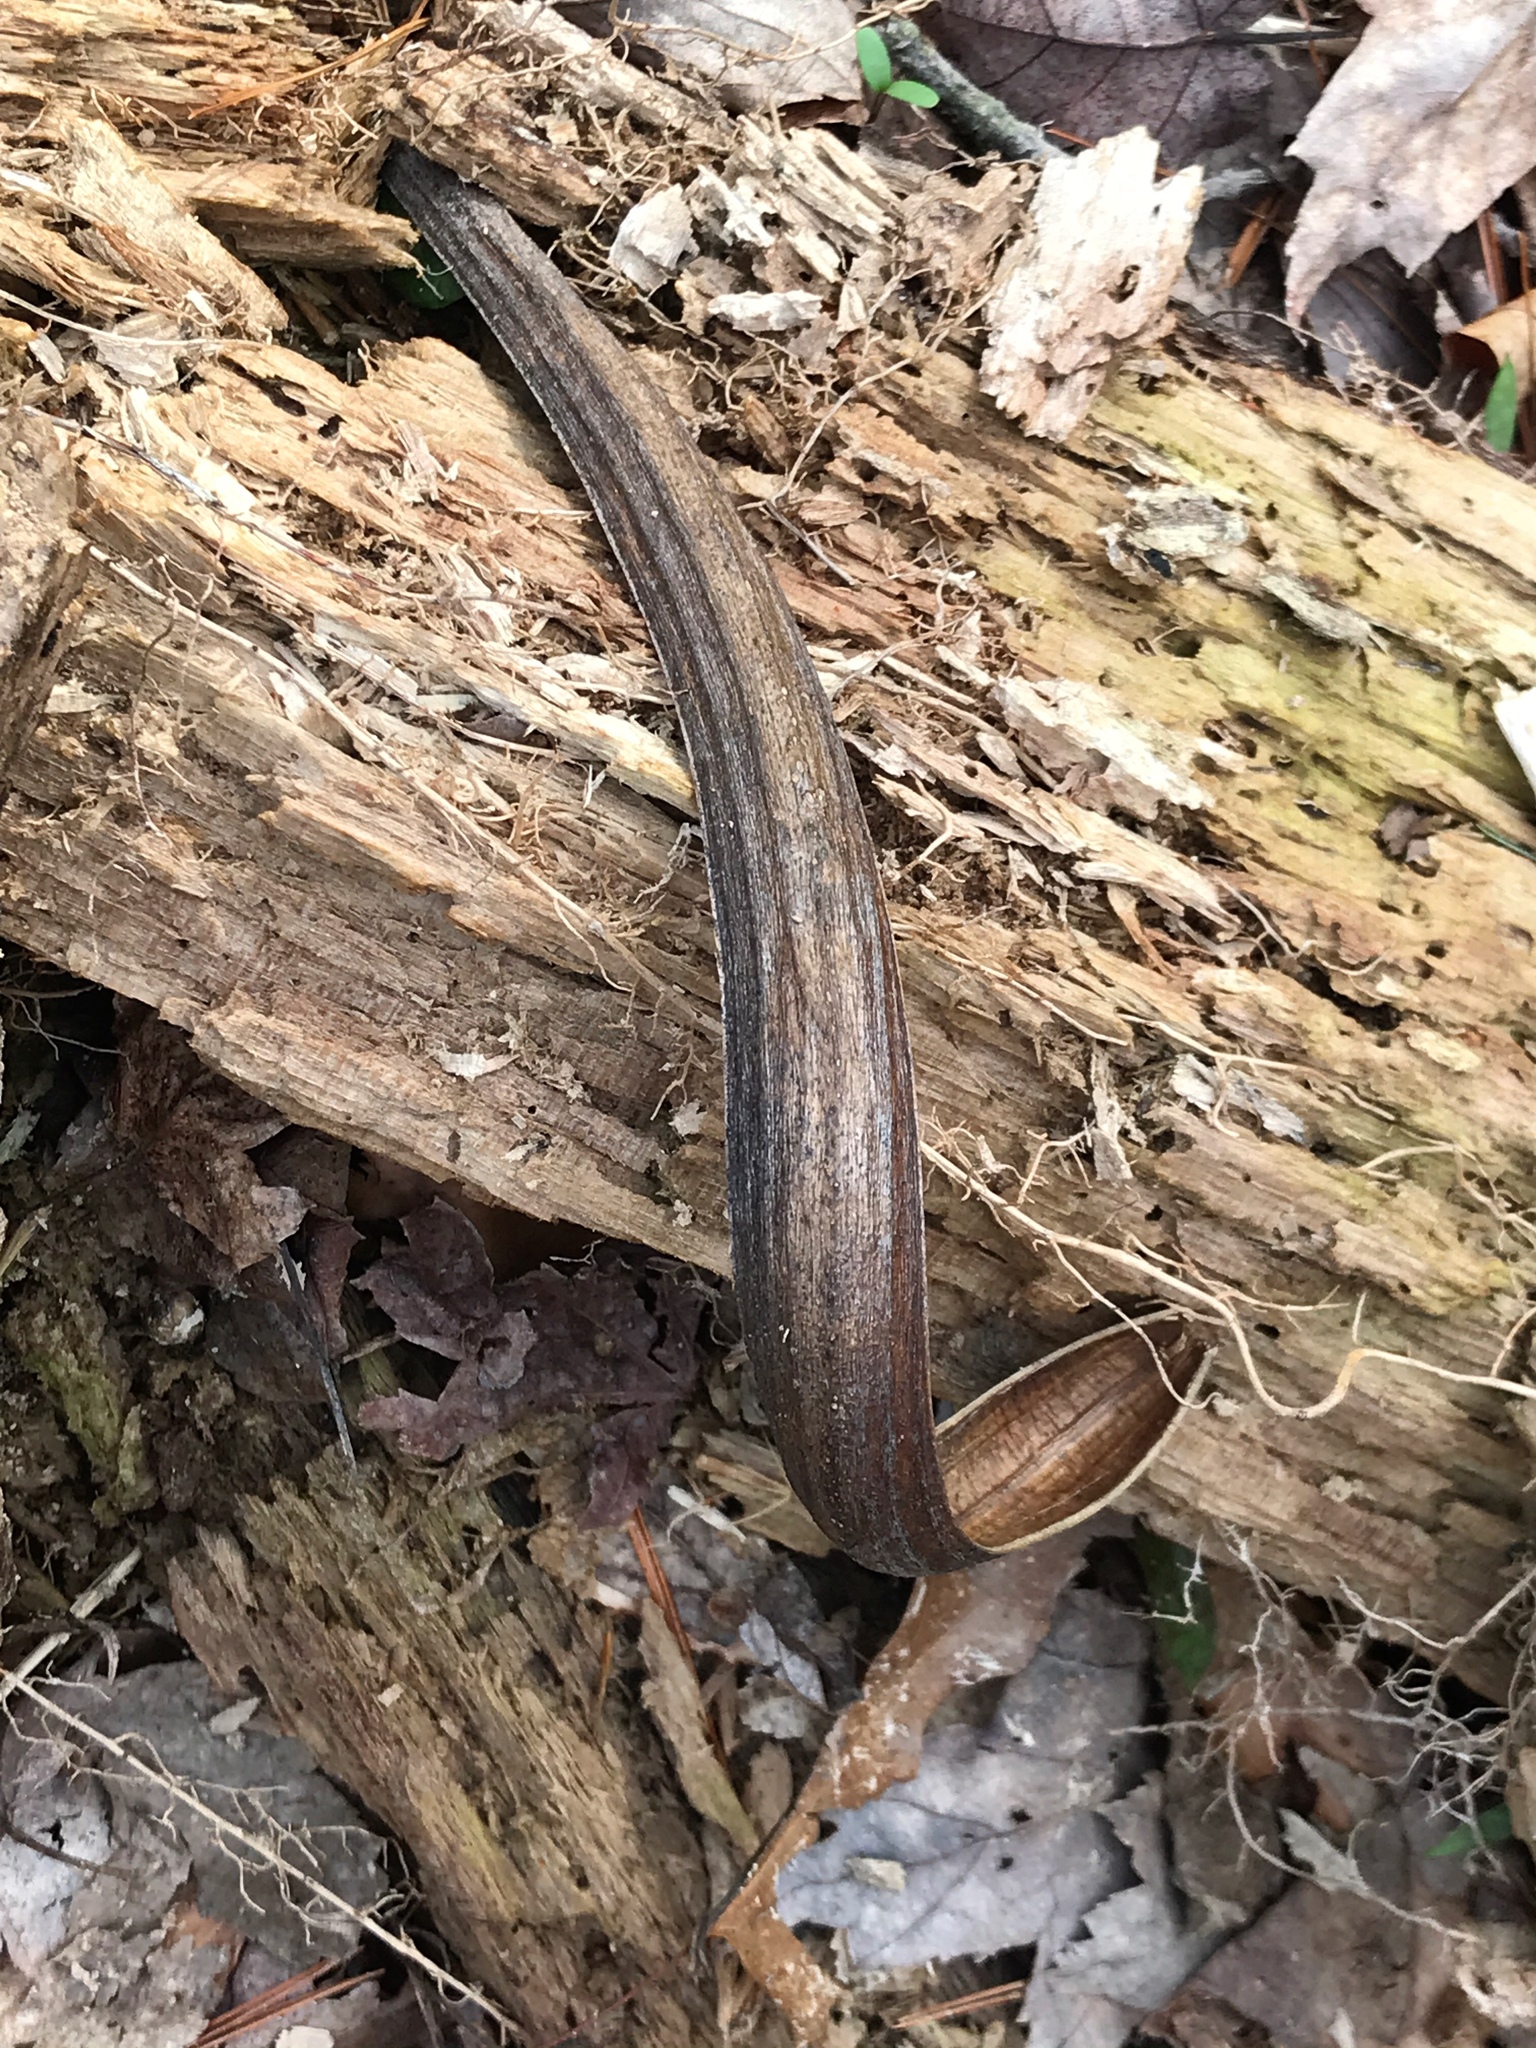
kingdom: Plantae
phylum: Tracheophyta
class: Magnoliopsida
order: Lamiales
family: Bignoniaceae
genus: Catalpa
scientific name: Catalpa
